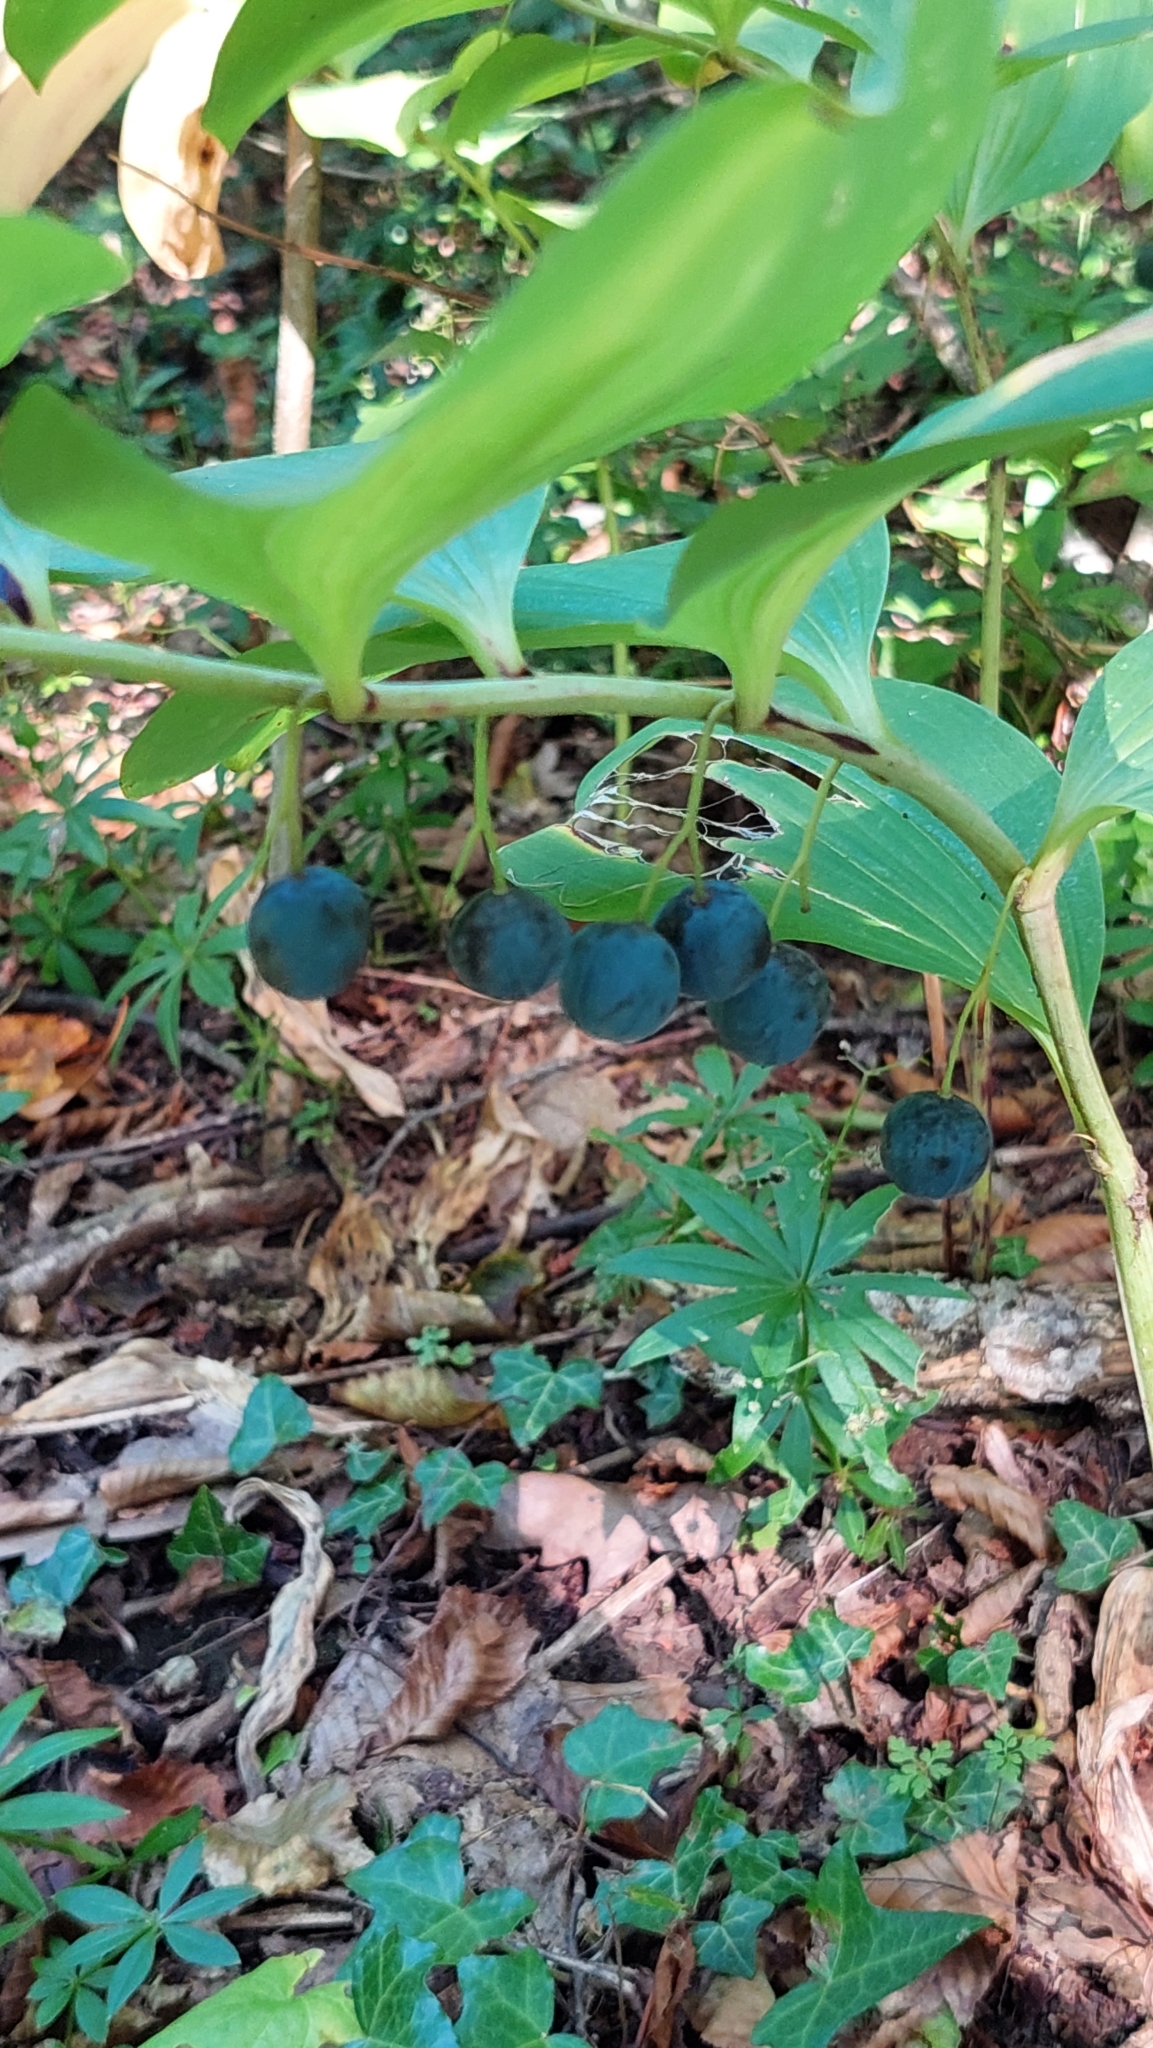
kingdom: Plantae
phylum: Tracheophyta
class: Liliopsida
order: Asparagales
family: Asparagaceae
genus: Polygonatum
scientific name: Polygonatum odoratum
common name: Angular solomon's-seal
